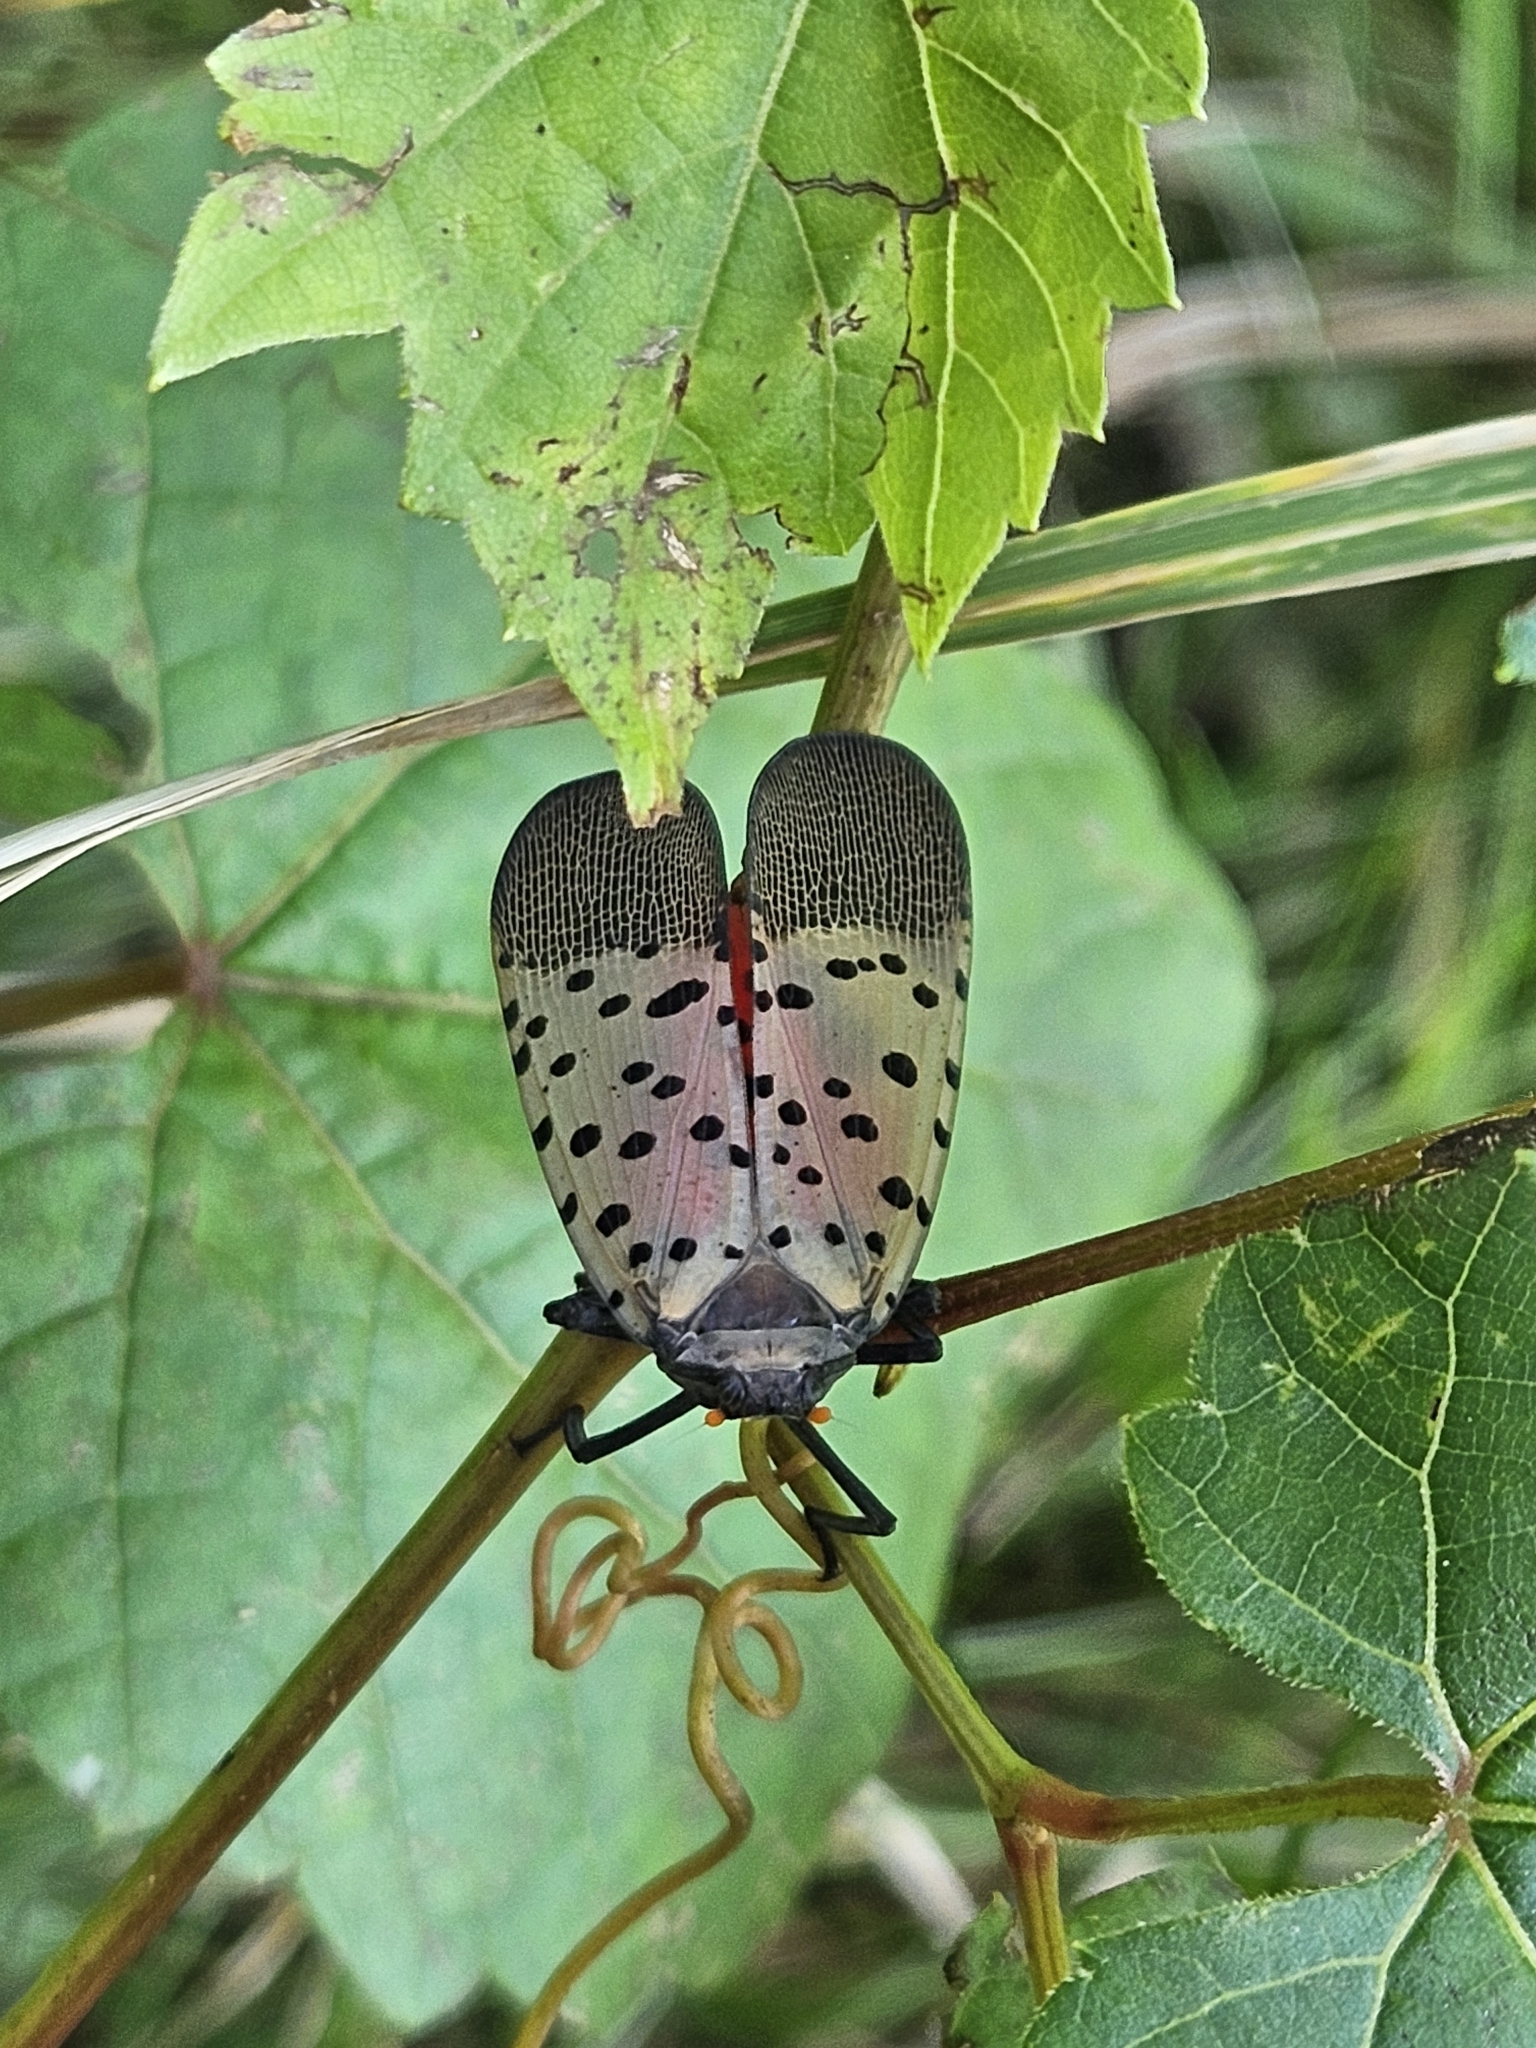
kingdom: Animalia
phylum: Arthropoda
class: Insecta
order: Hemiptera
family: Fulgoridae
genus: Lycorma
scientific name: Lycorma delicatula
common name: Spotted lanternfly
